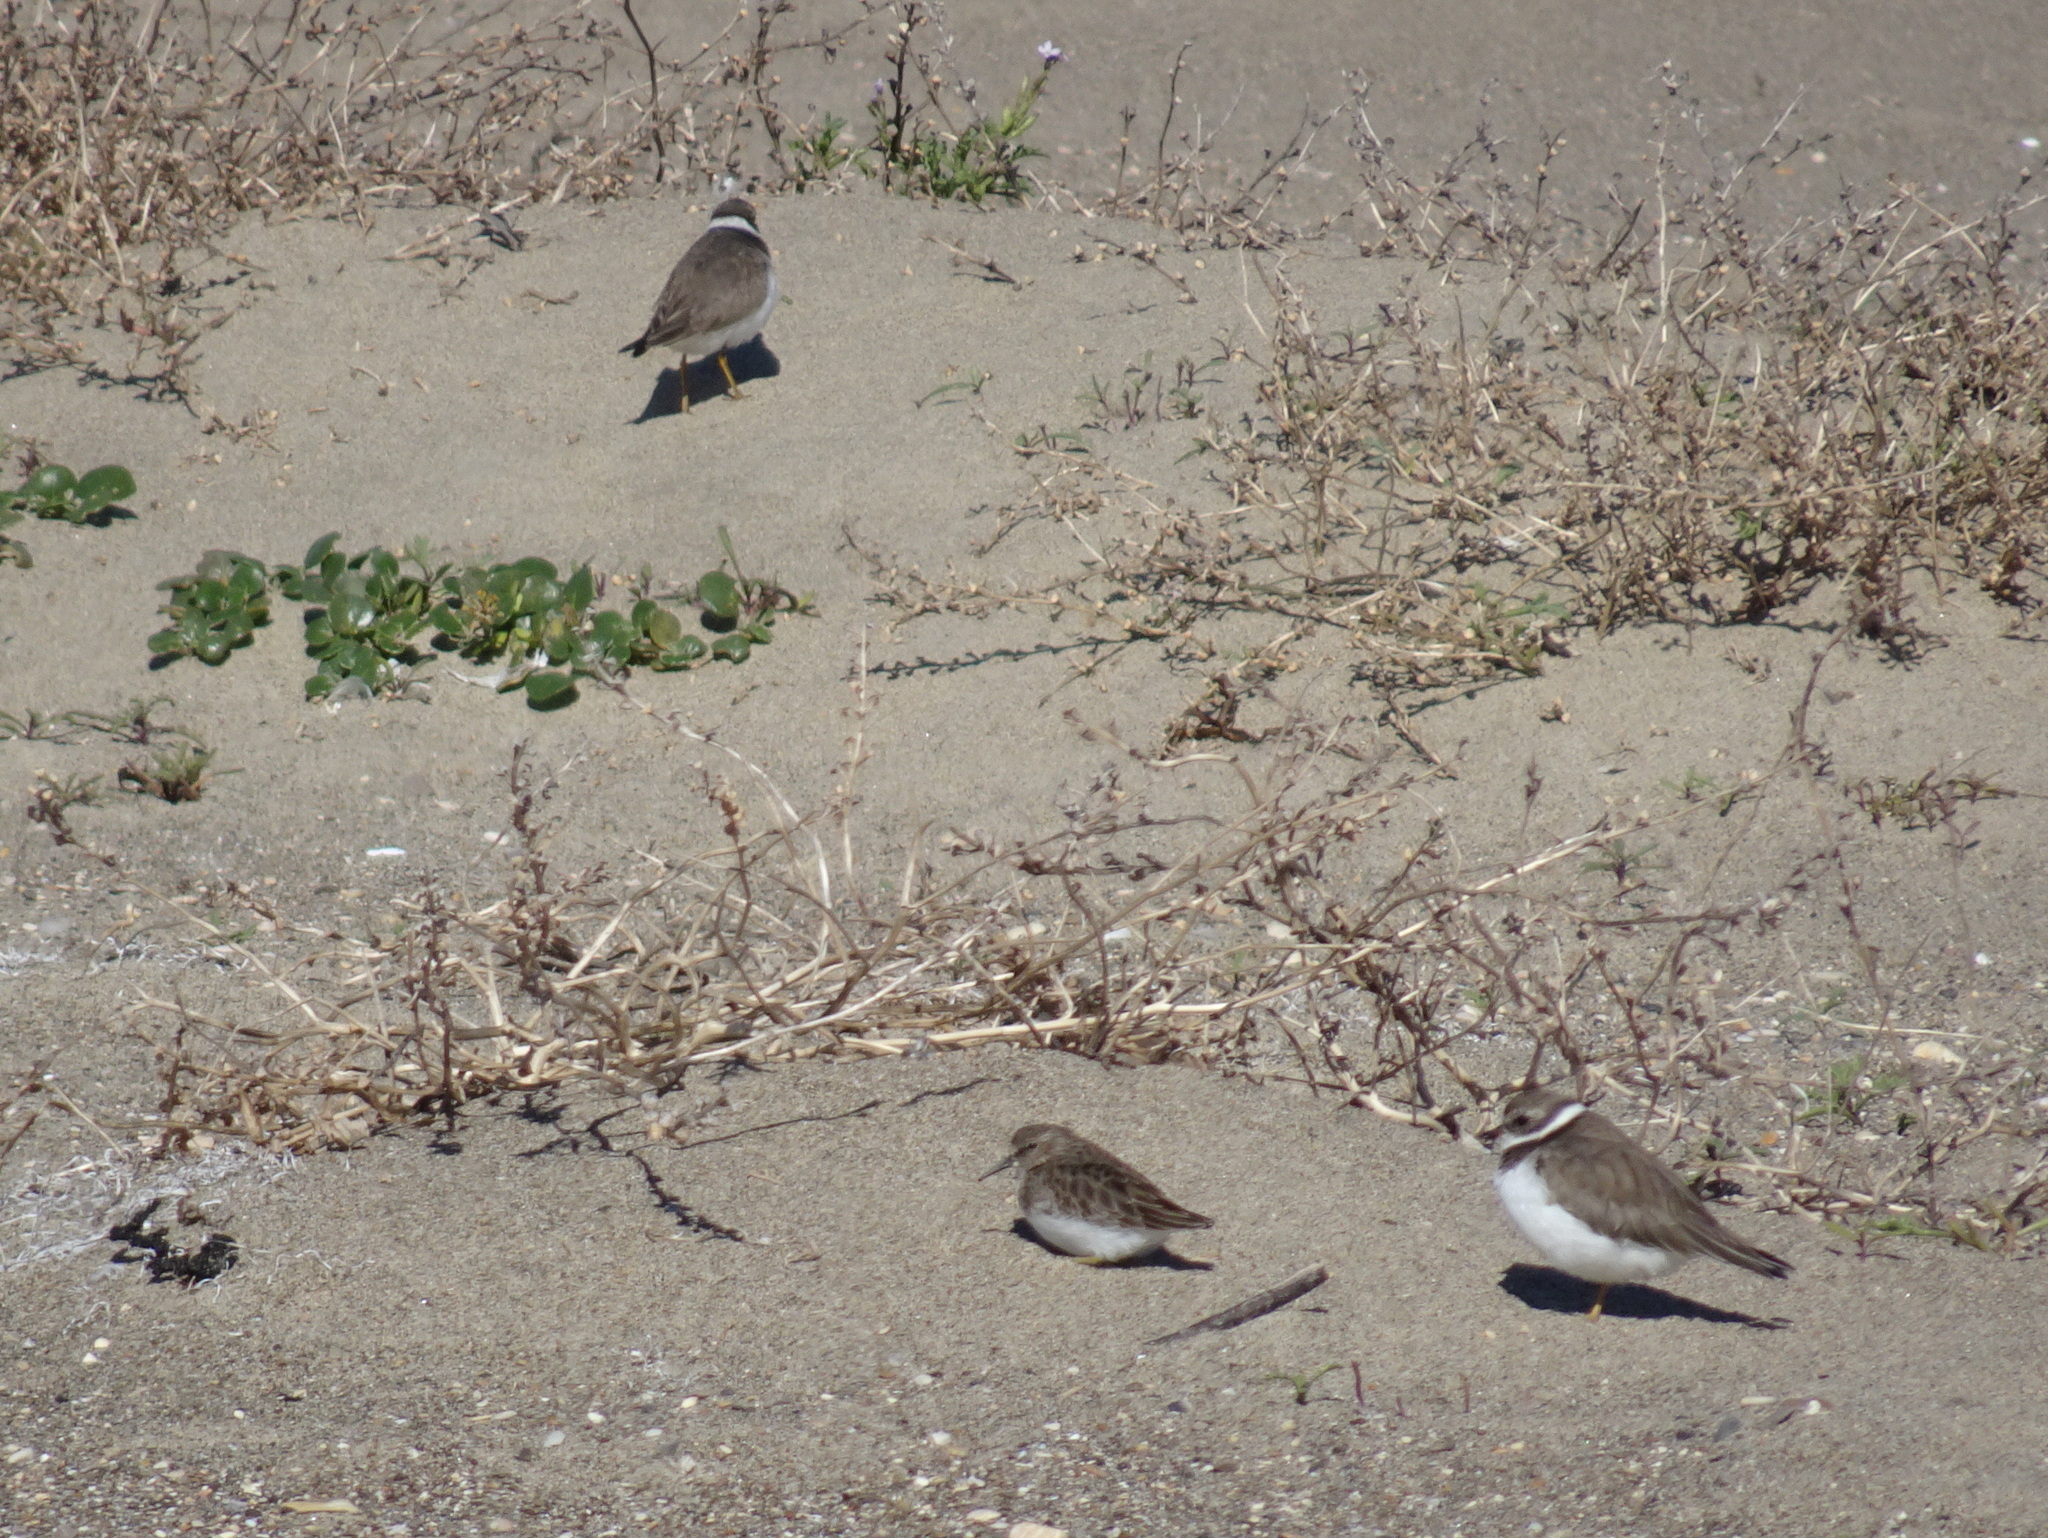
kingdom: Animalia
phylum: Chordata
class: Aves
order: Charadriiformes
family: Charadriidae
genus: Charadrius
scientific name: Charadrius semipalmatus
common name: Semipalmated plover
